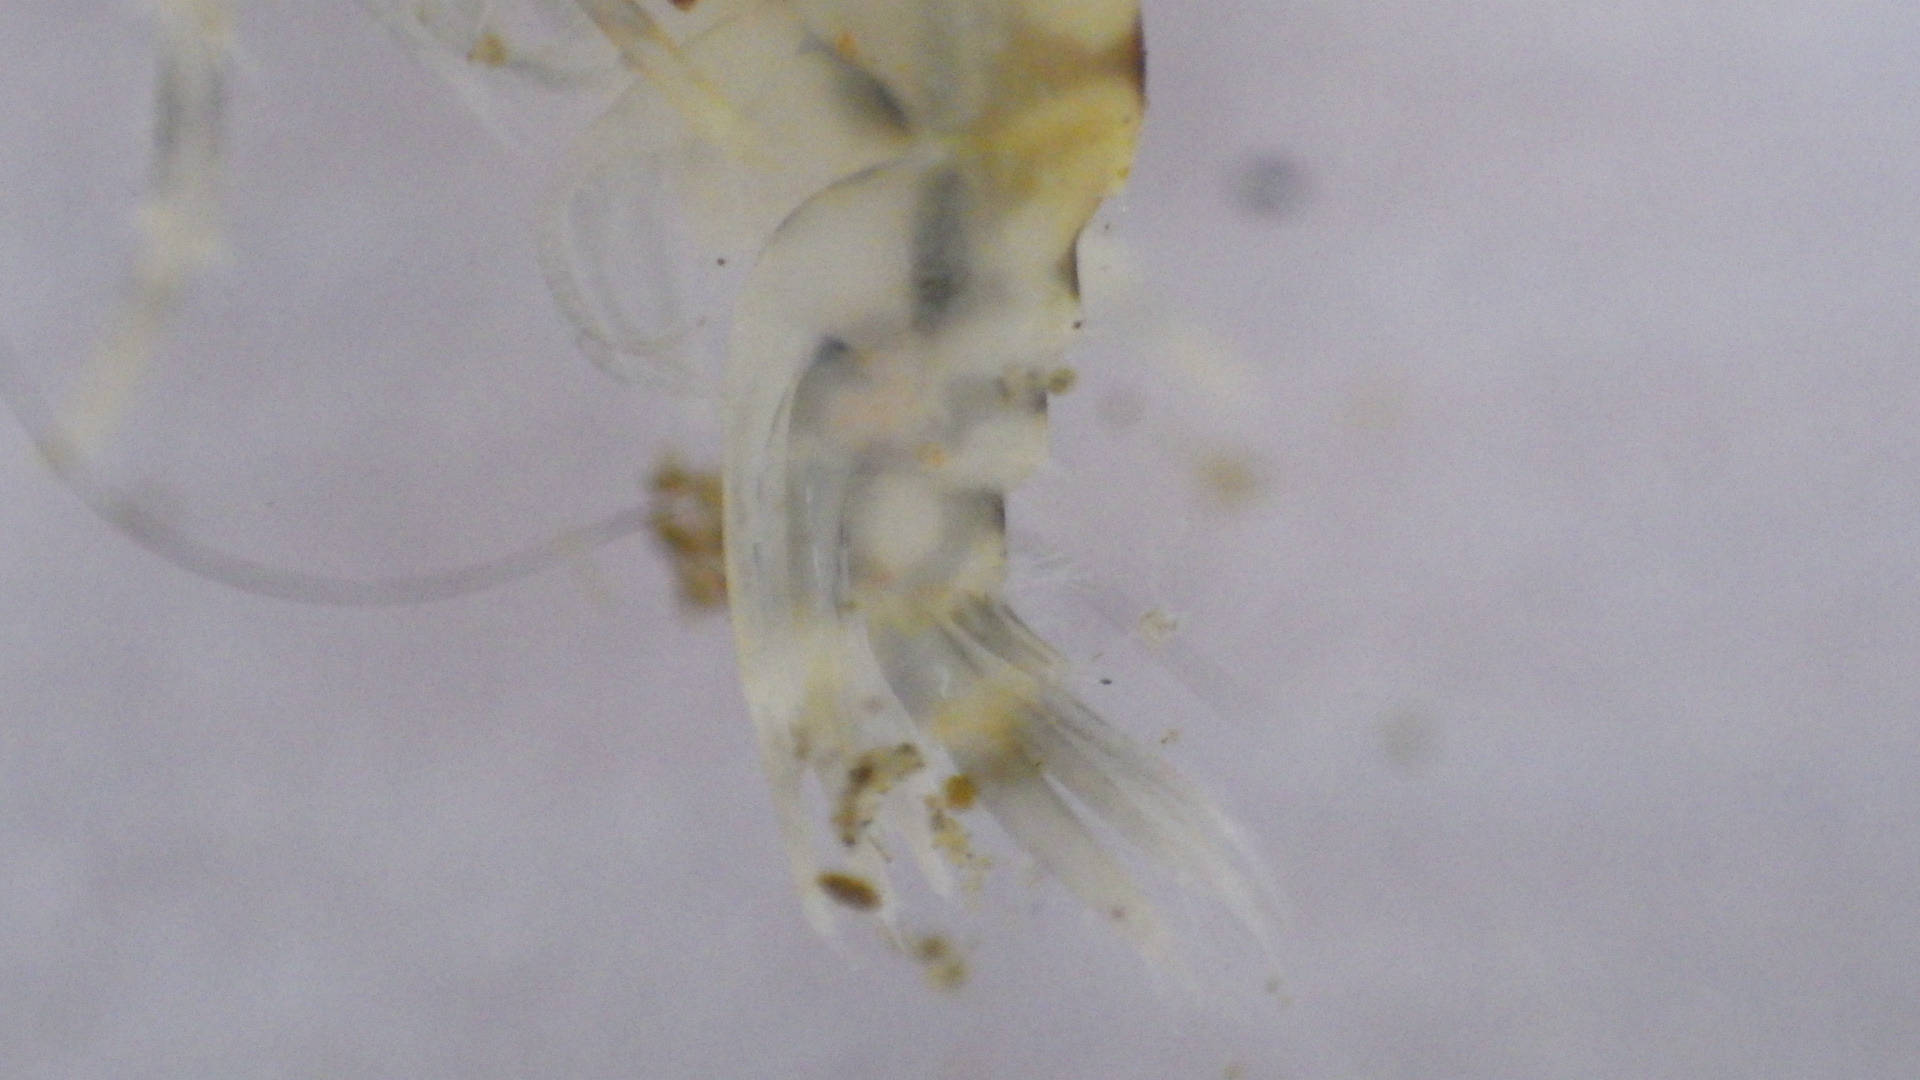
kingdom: Animalia
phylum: Arthropoda
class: Malacostraca
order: Amphipoda
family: Gammaridae
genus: Gammarus
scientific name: Gammarus fasciatus
